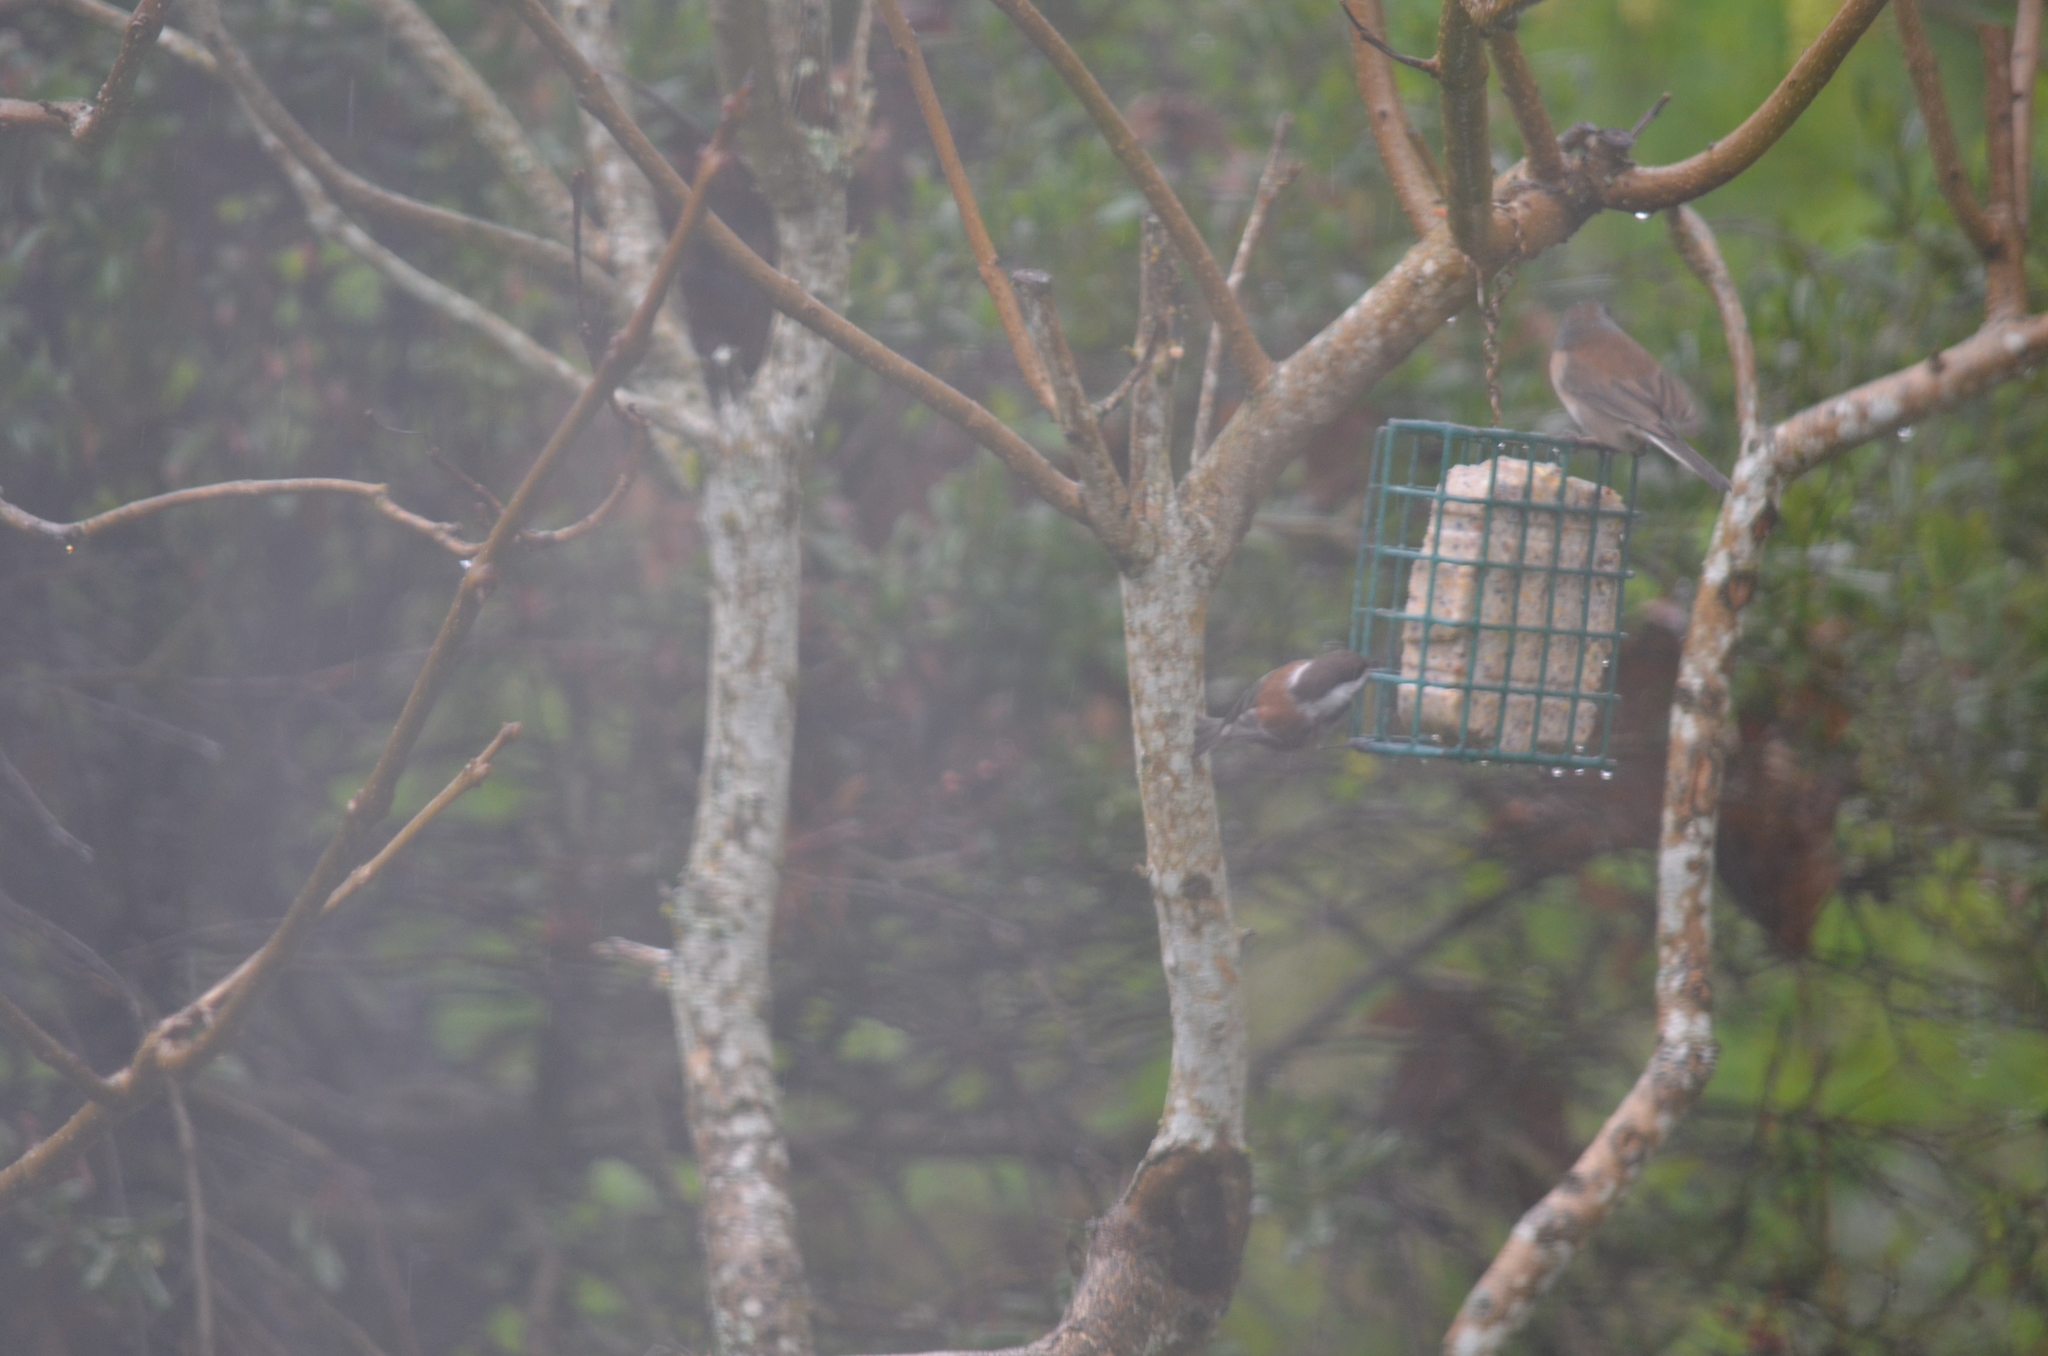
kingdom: Animalia
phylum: Chordata
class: Aves
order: Passeriformes
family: Paridae
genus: Poecile
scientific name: Poecile rufescens
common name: Chestnut-backed chickadee
